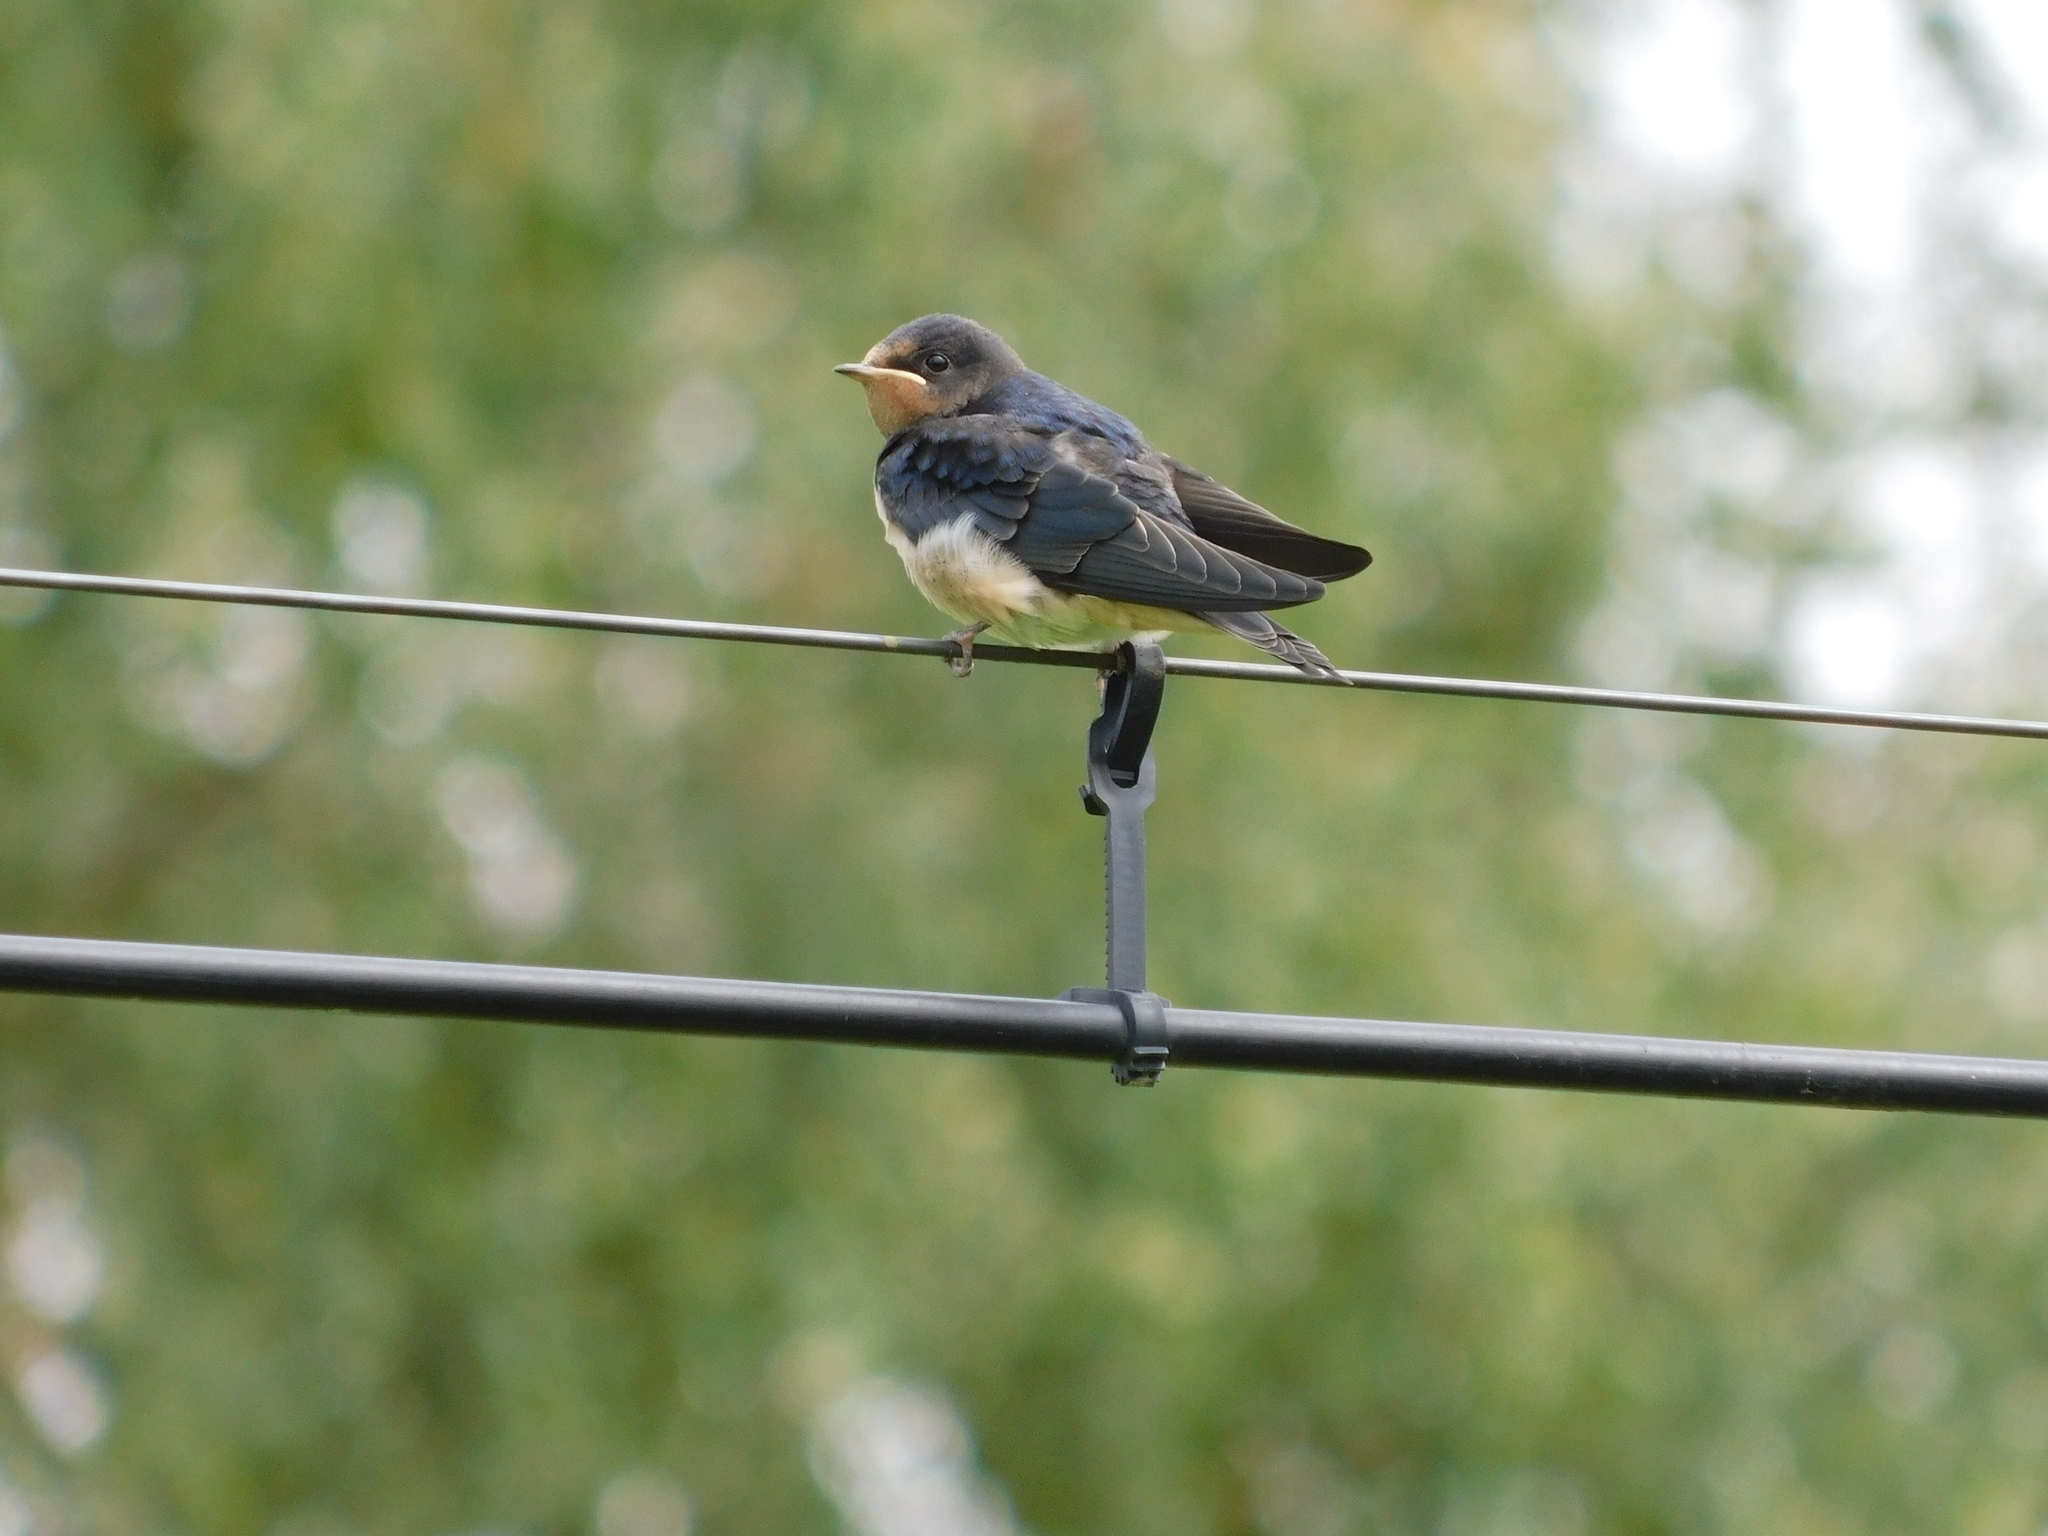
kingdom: Animalia
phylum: Chordata
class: Aves
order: Passeriformes
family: Hirundinidae
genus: Hirundo
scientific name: Hirundo rustica
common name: Barn swallow
